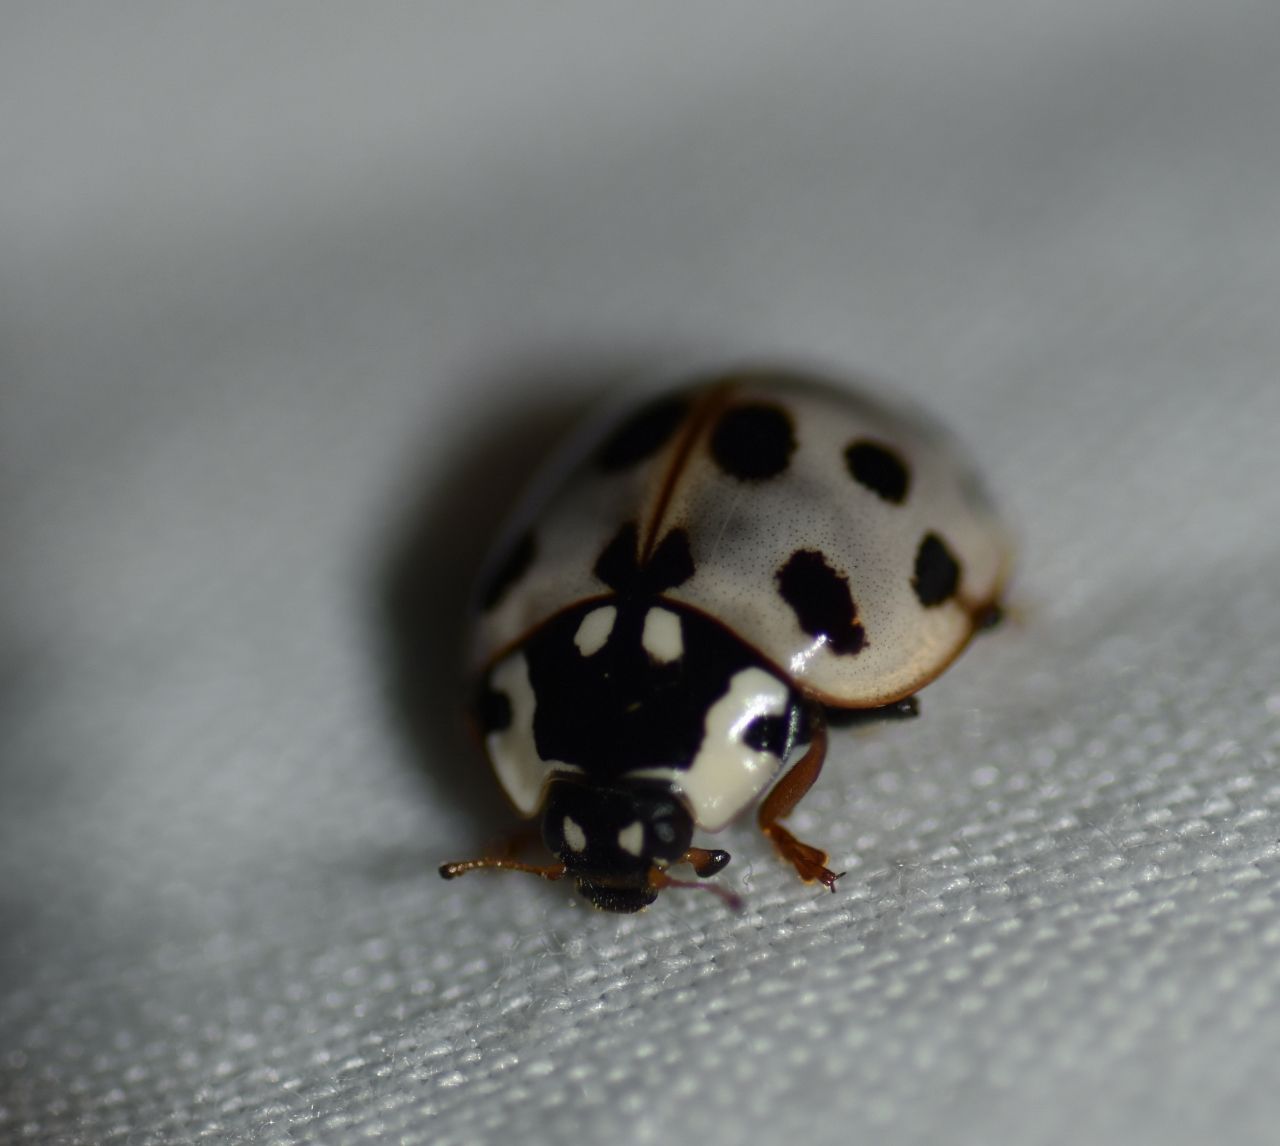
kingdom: Animalia
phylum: Arthropoda
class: Insecta
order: Coleoptera
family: Coccinellidae
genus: Anatis
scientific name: Anatis labiculata
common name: Fifteen-spotted lady beetle
